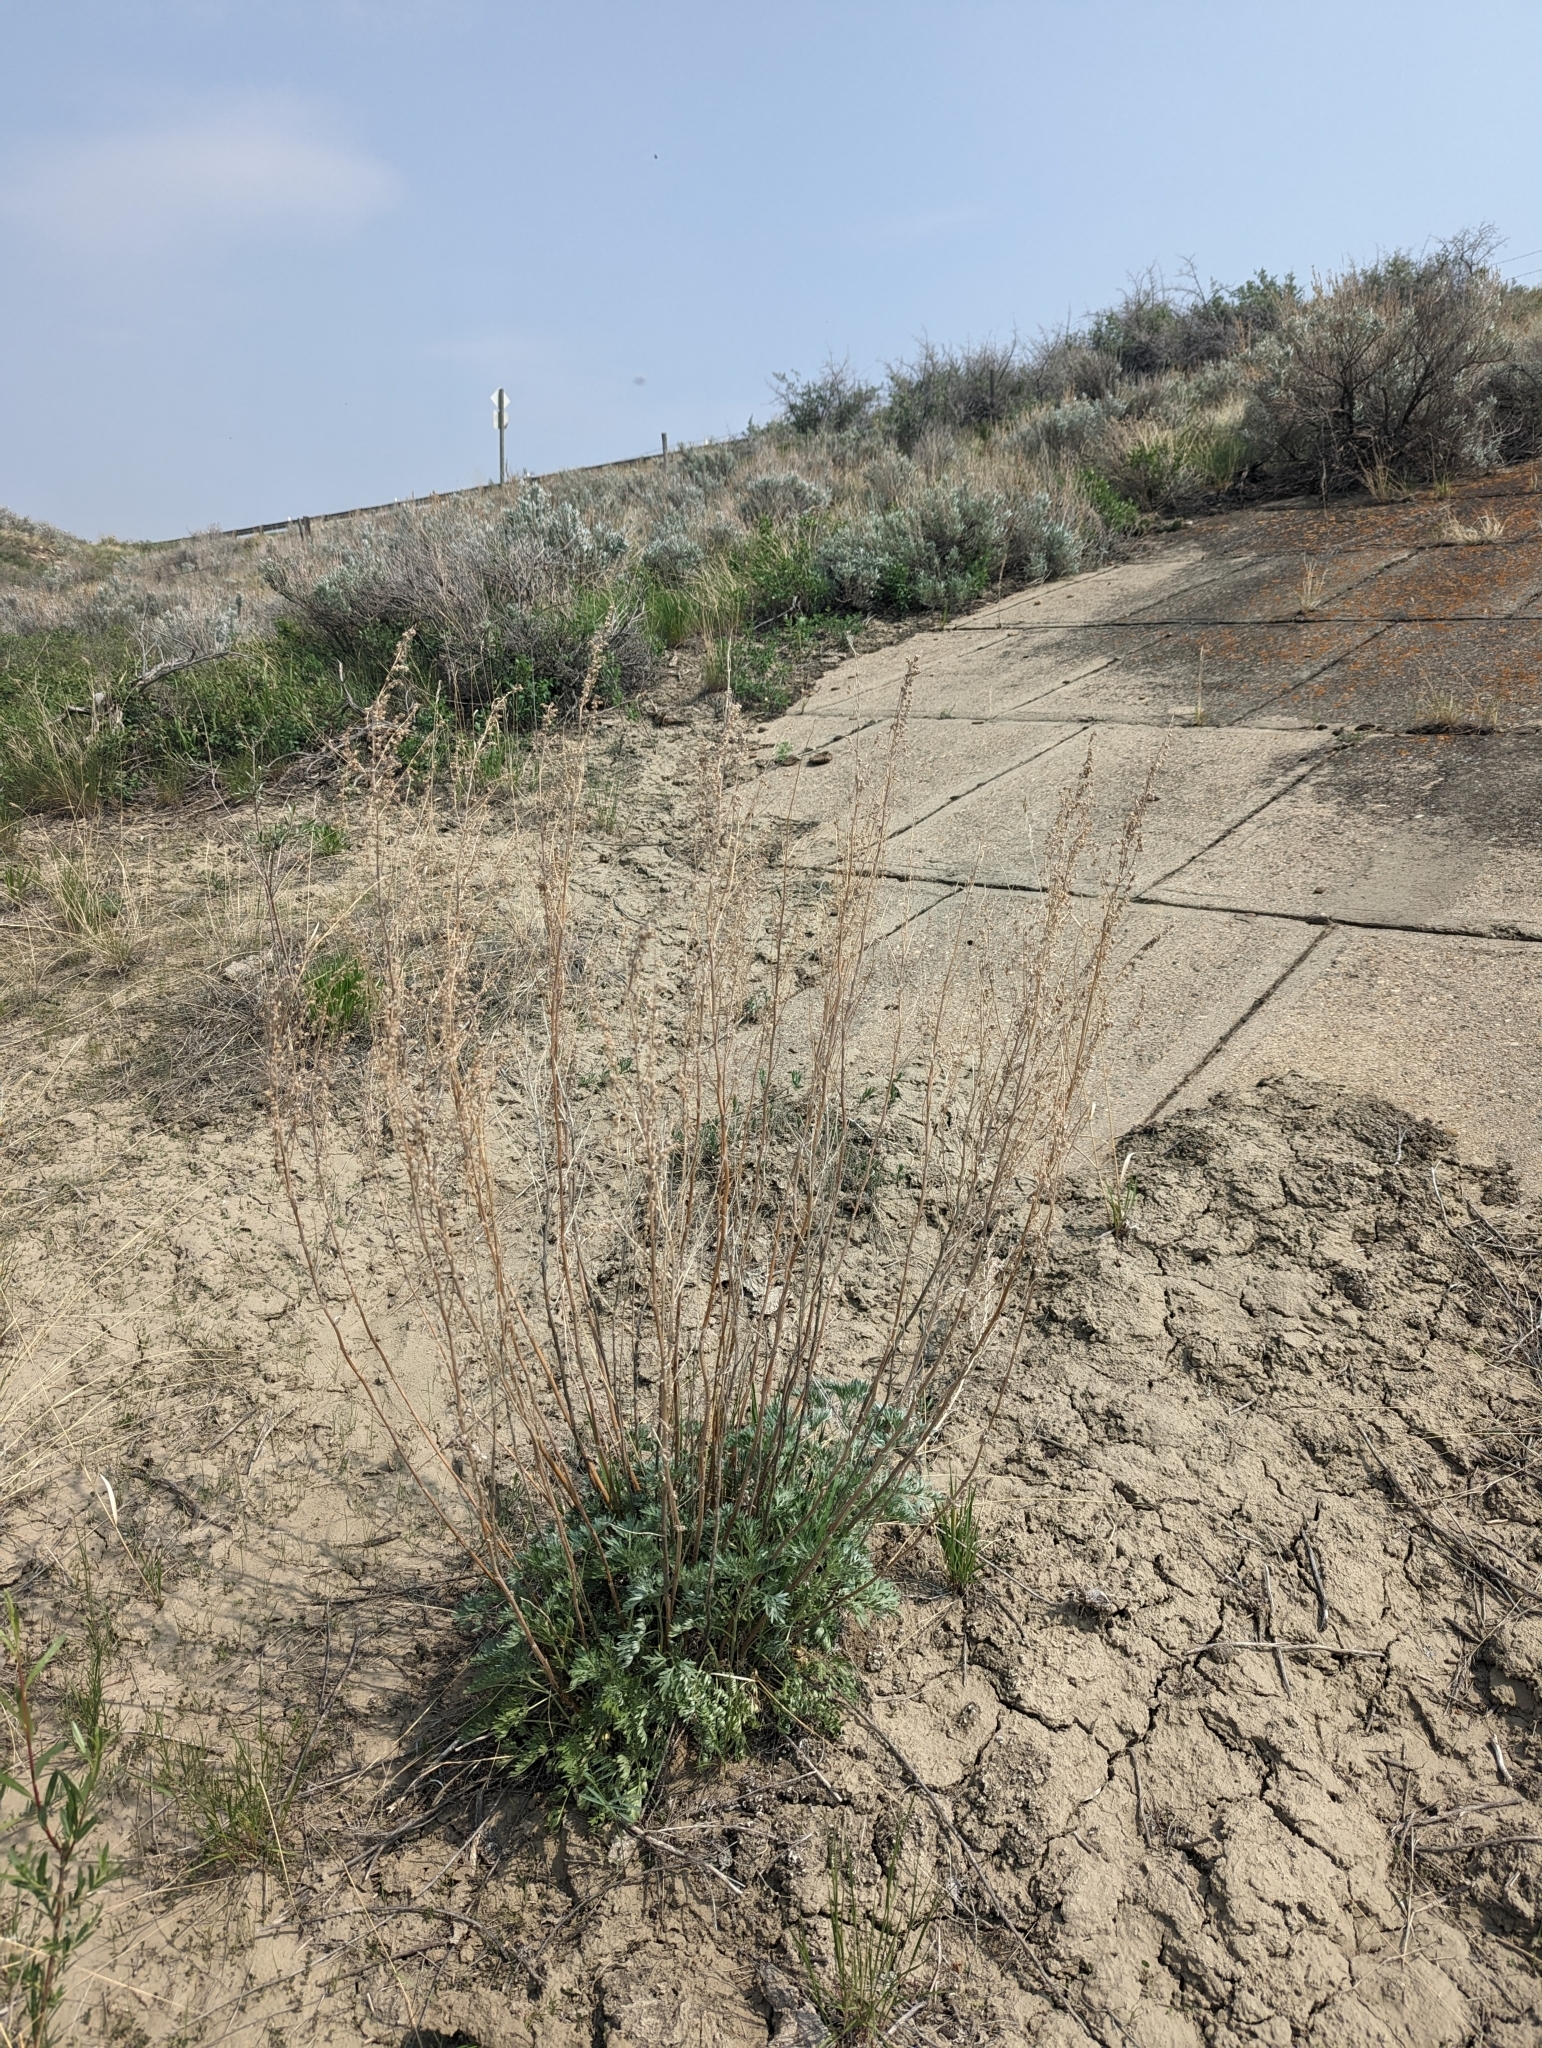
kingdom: Plantae
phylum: Tracheophyta
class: Magnoliopsida
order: Asterales
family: Asteraceae
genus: Artemisia
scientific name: Artemisia absinthium
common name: Wormwood
